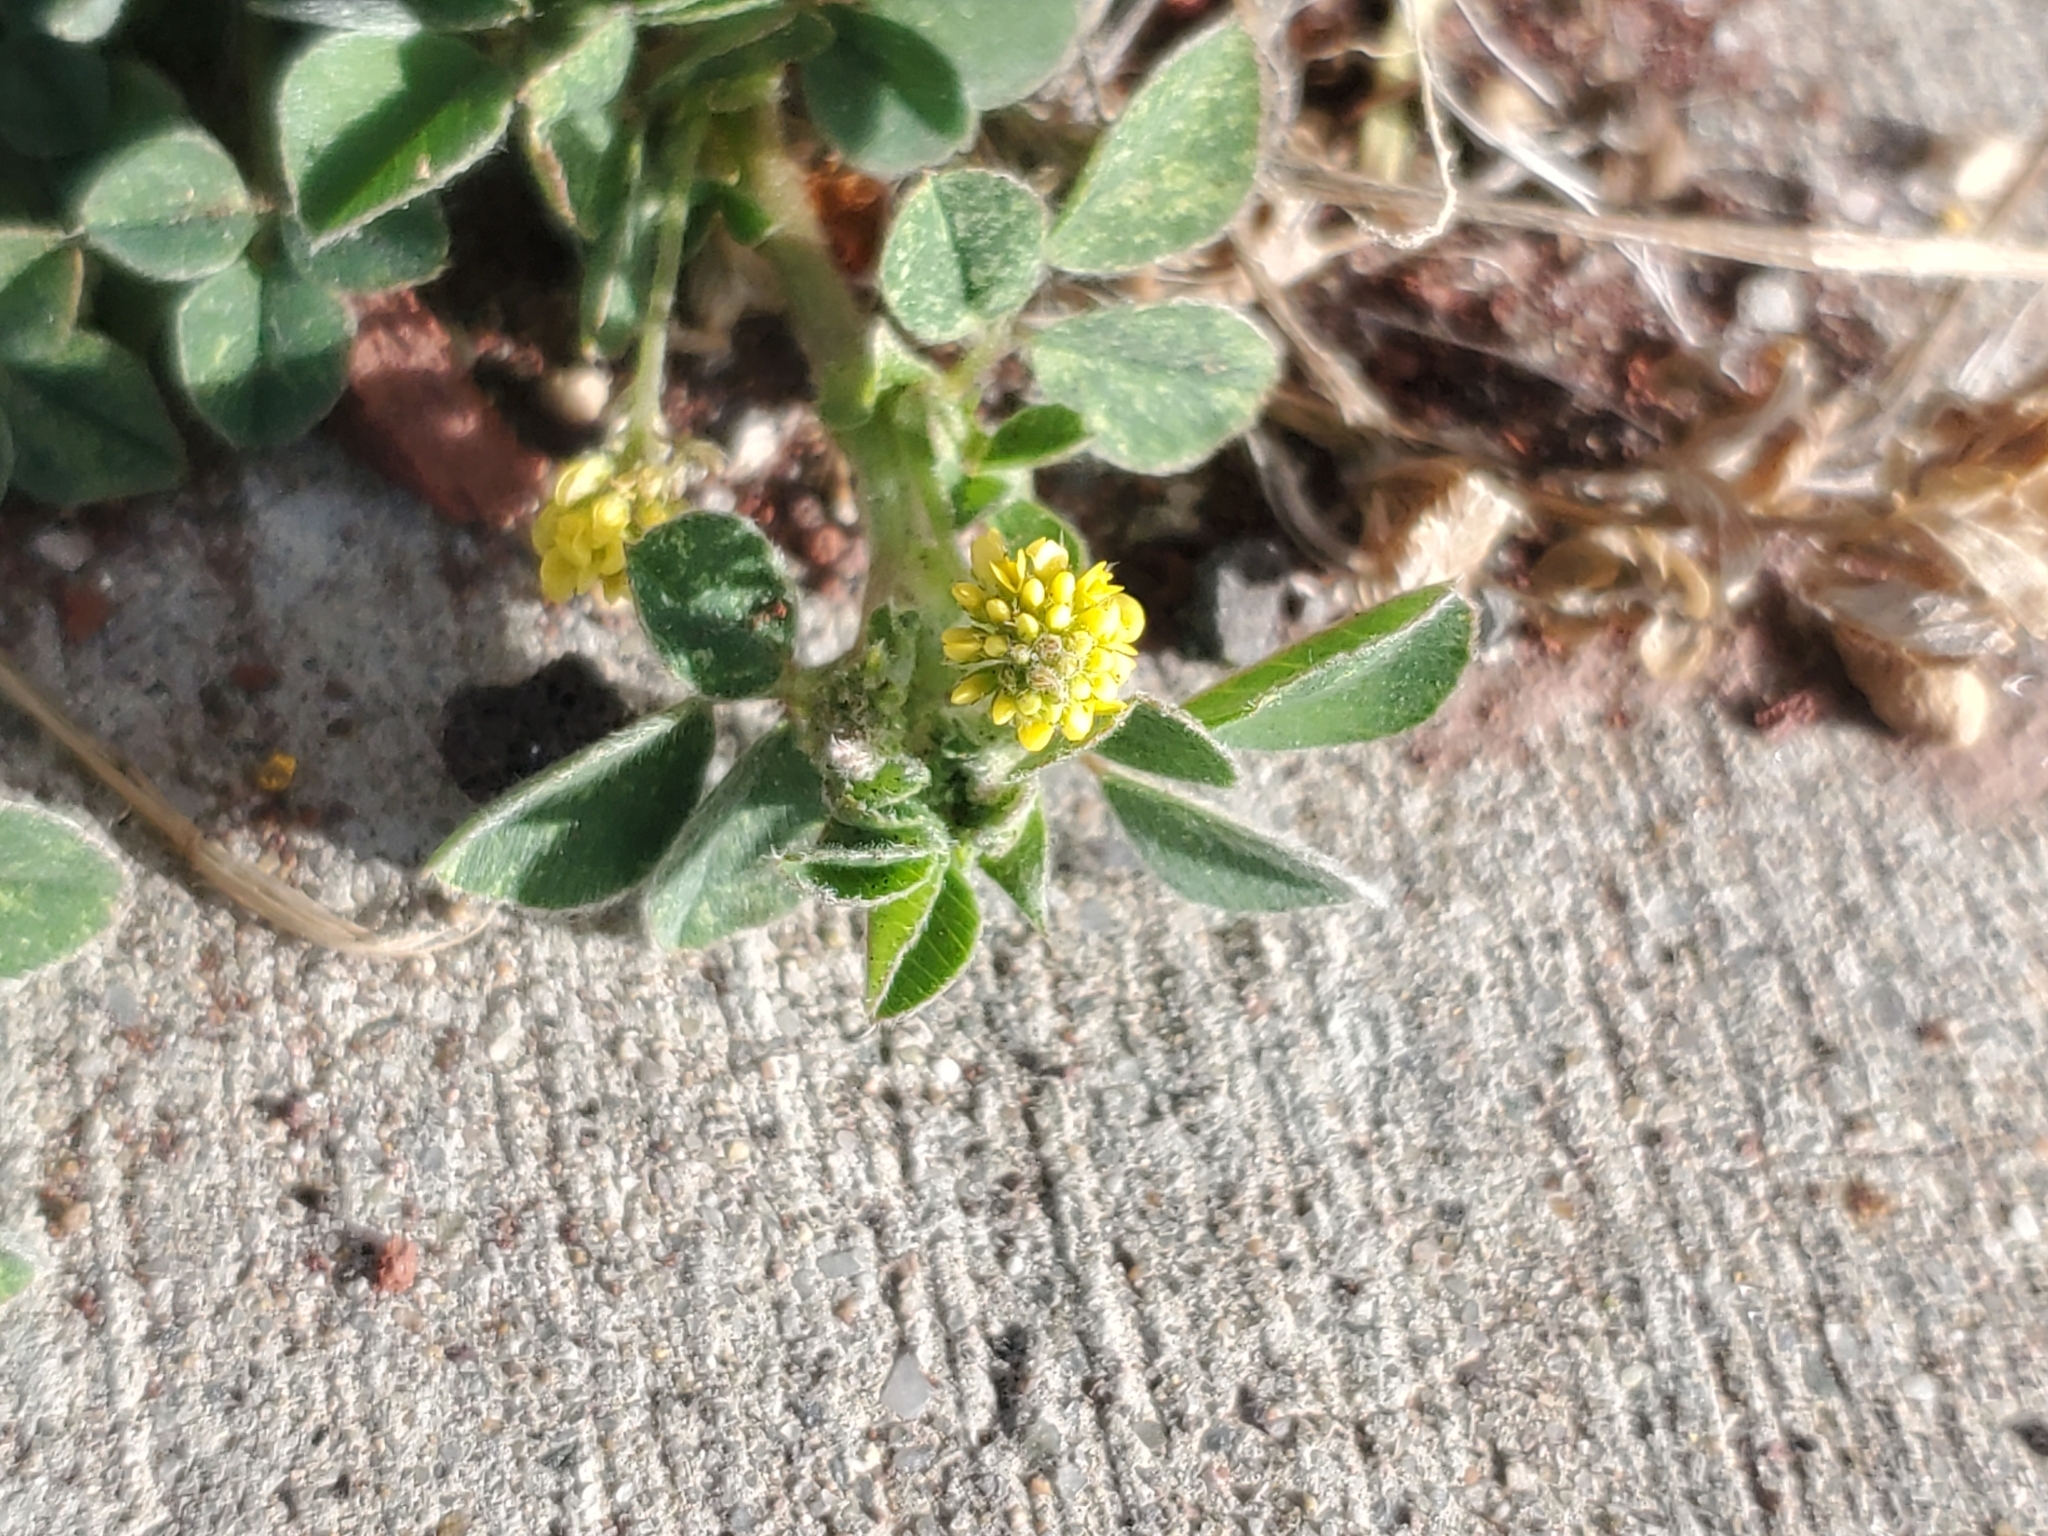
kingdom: Plantae
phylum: Tracheophyta
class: Magnoliopsida
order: Fabales
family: Fabaceae
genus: Medicago
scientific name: Medicago lupulina
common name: Black medick
